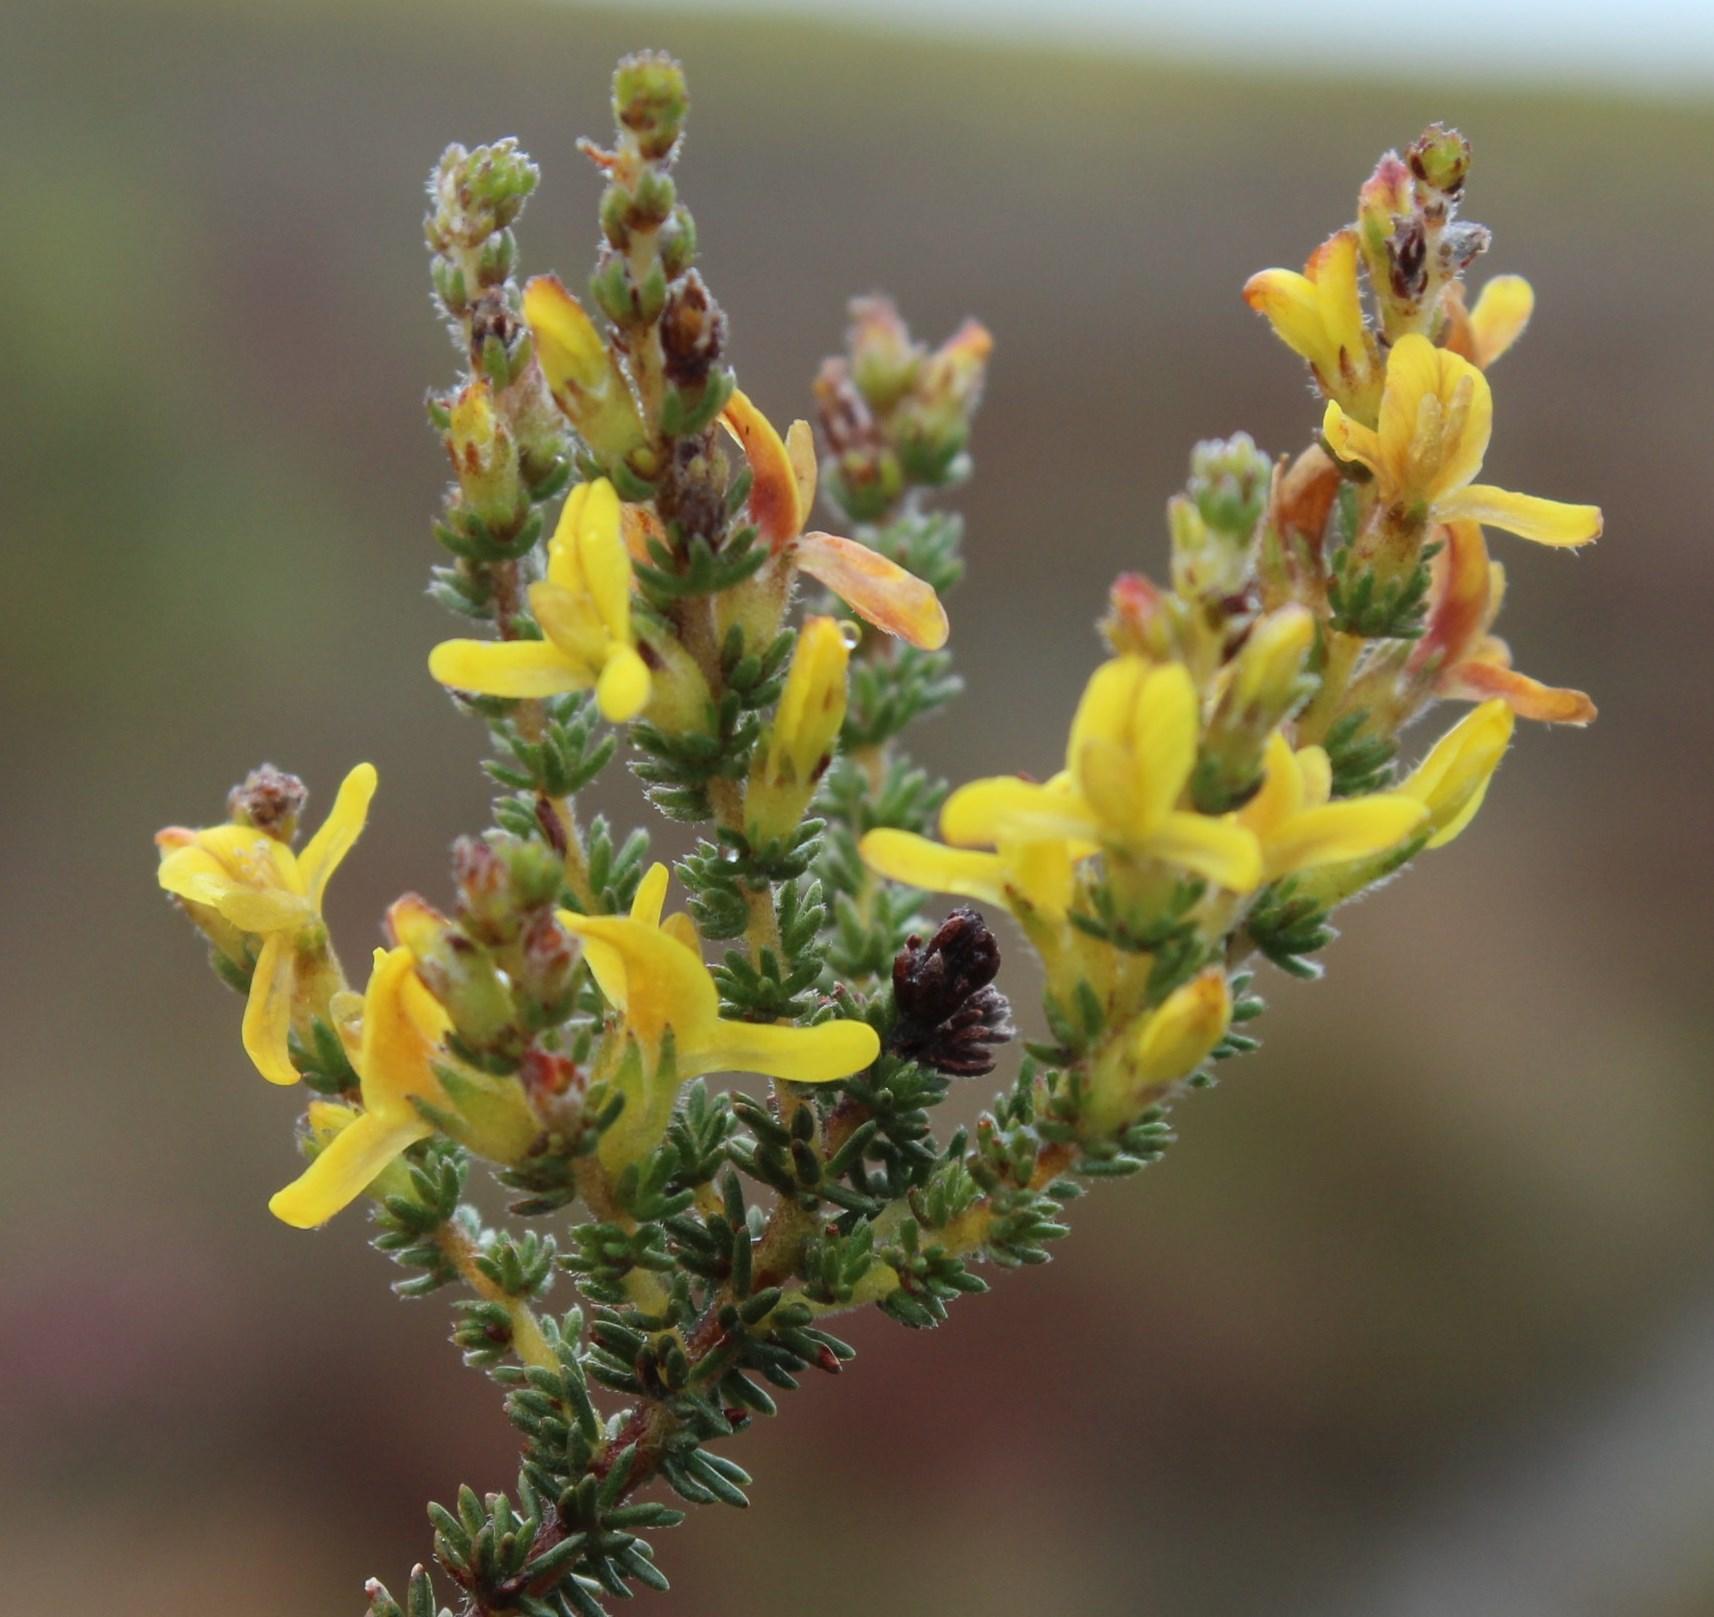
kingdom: Plantae
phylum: Tracheophyta
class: Magnoliopsida
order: Fabales
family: Fabaceae
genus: Aspalathus
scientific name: Aspalathus ericifolia
